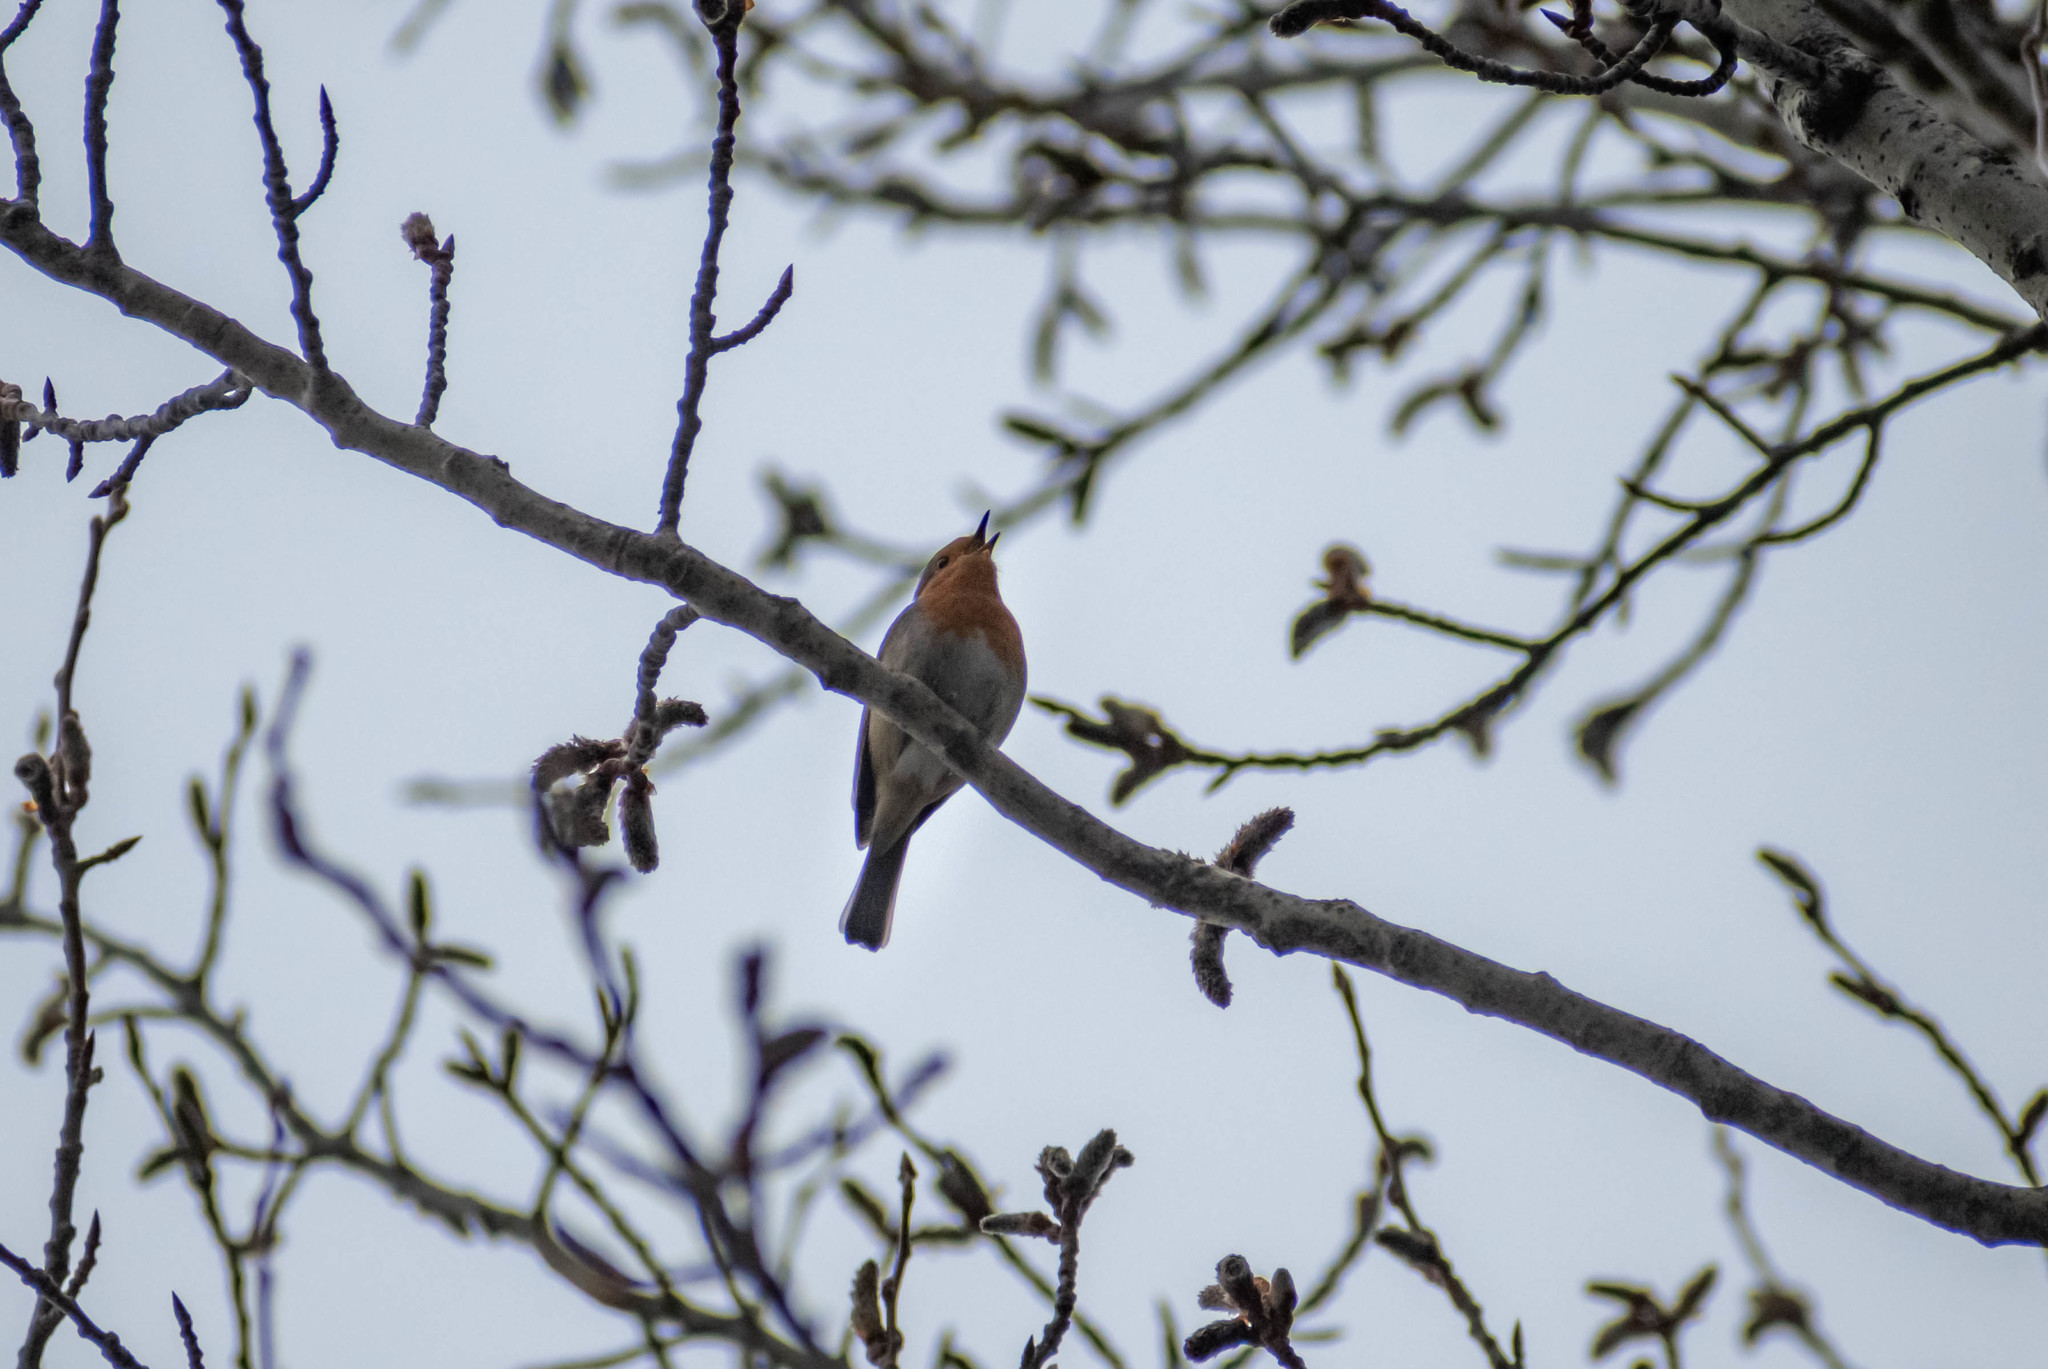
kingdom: Animalia
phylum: Chordata
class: Aves
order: Passeriformes
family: Muscicapidae
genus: Erithacus
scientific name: Erithacus rubecula
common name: European robin
